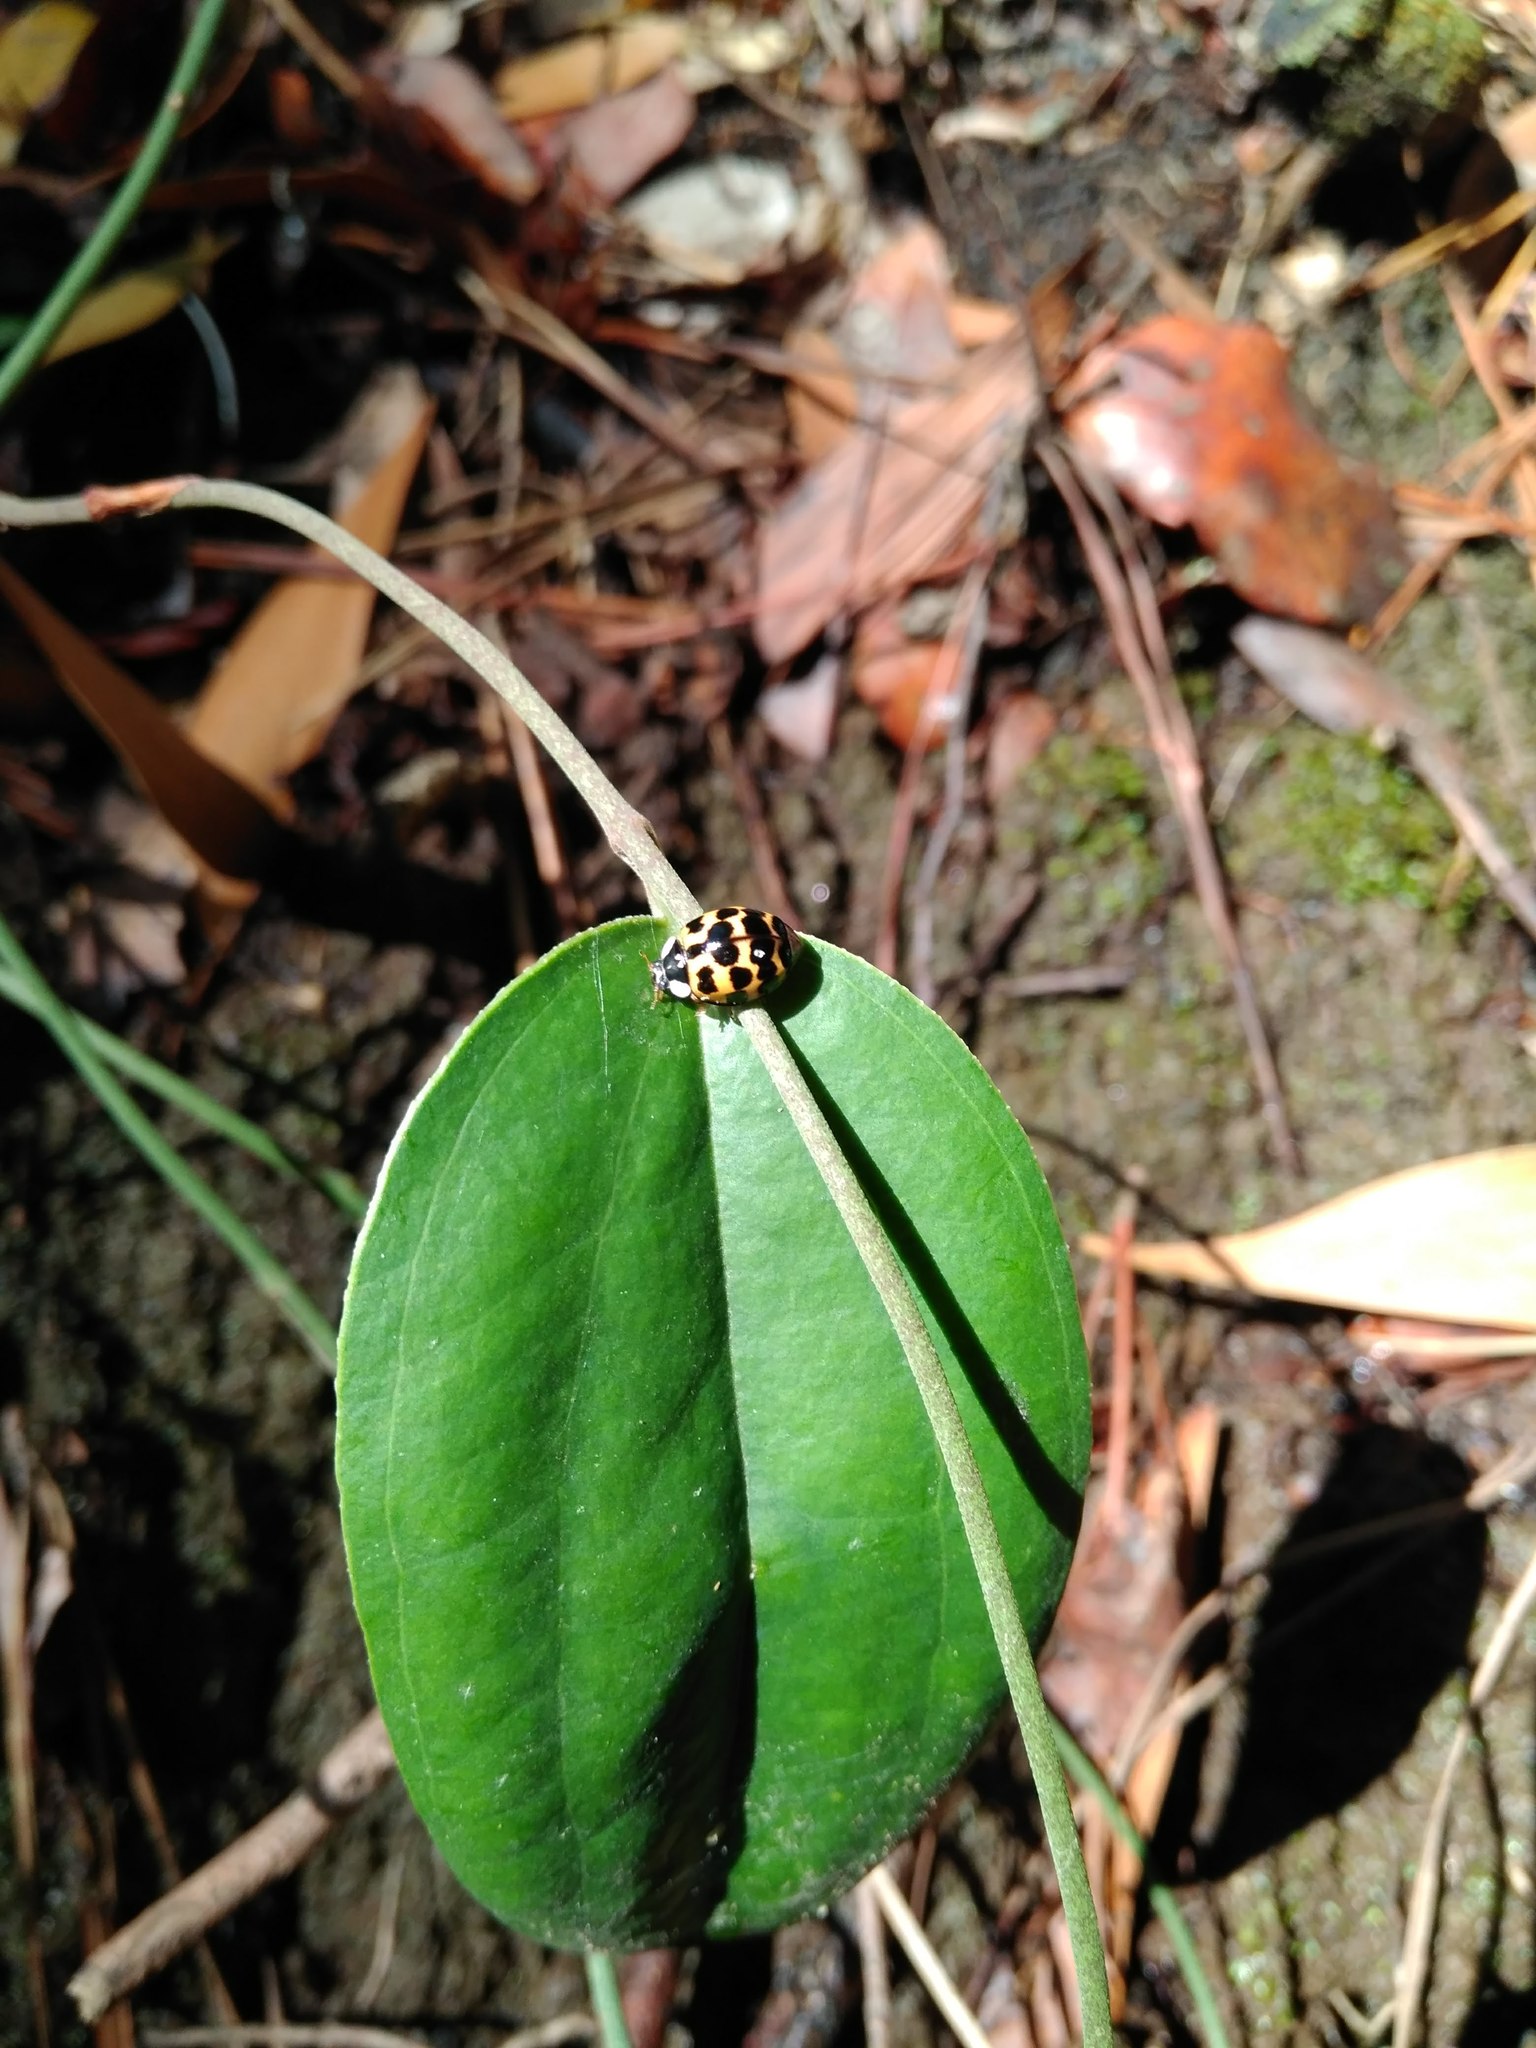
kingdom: Animalia
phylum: Arthropoda
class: Insecta
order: Coleoptera
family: Coccinellidae
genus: Harmonia
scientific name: Harmonia axyridis
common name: Harlequin ladybird
